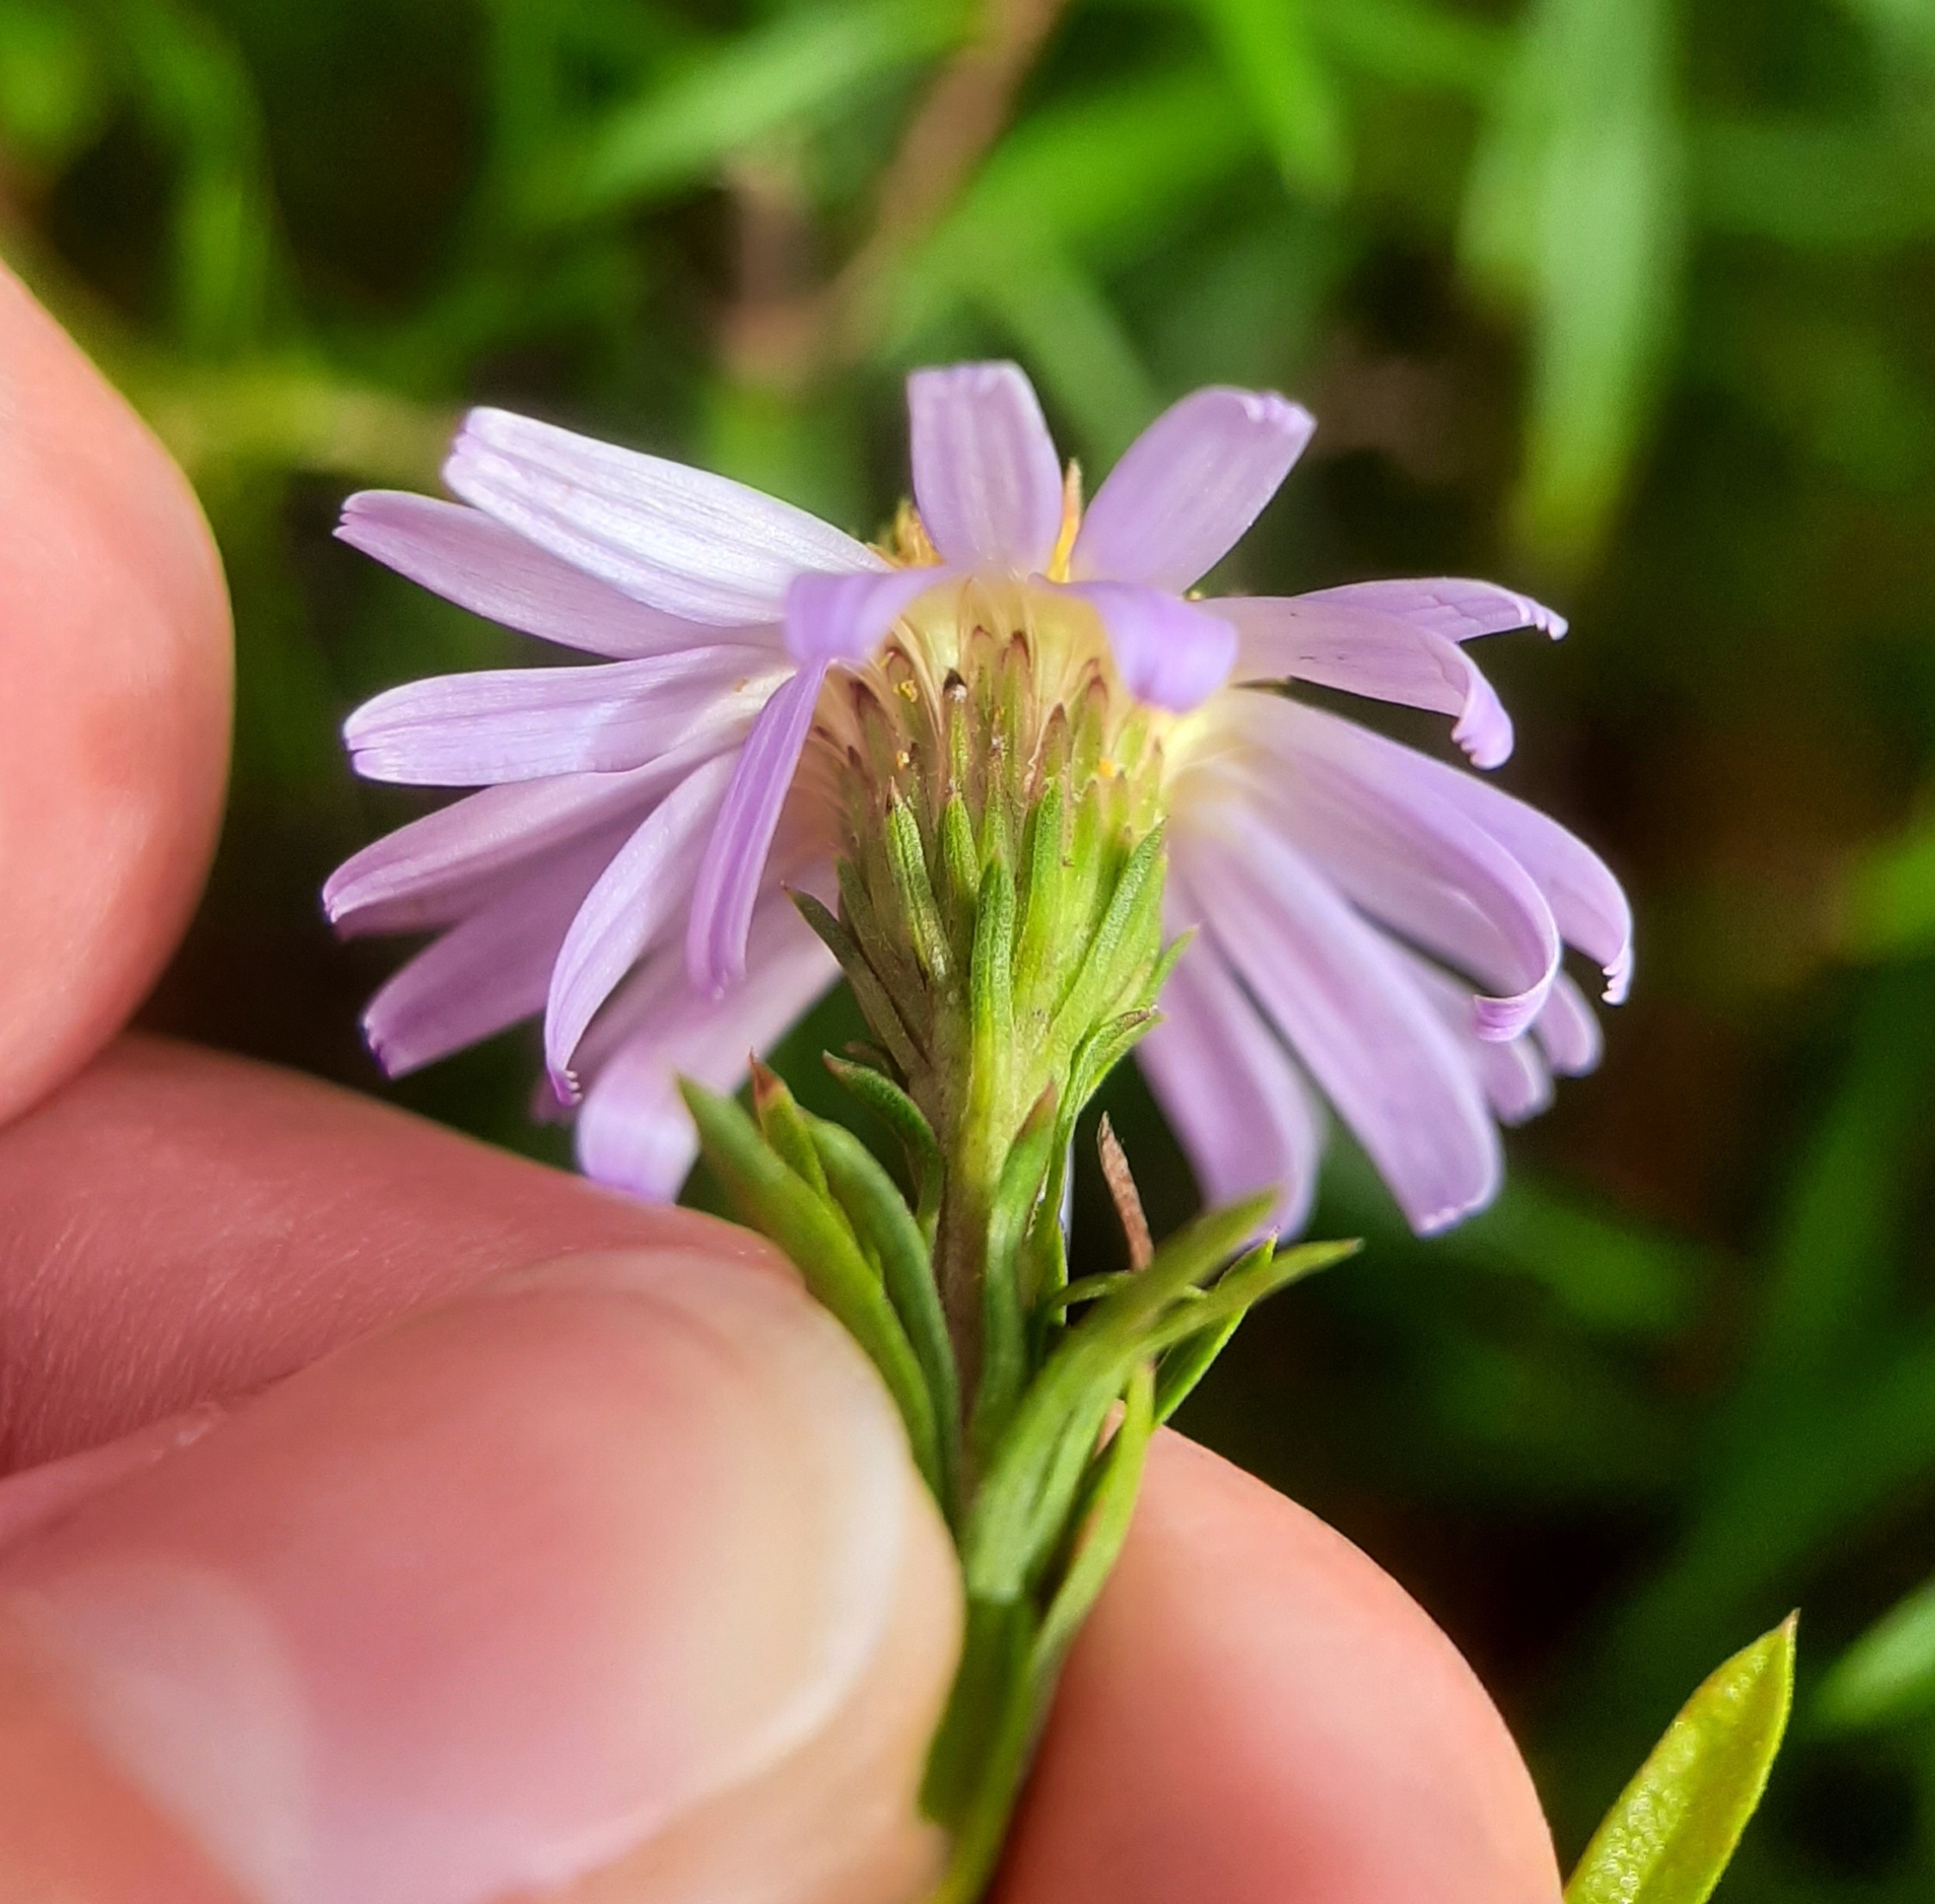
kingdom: Plantae
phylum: Tracheophyta
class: Magnoliopsida
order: Asterales
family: Asteraceae
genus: Ionactis
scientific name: Ionactis linariifolia
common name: Flax-leaf aster
